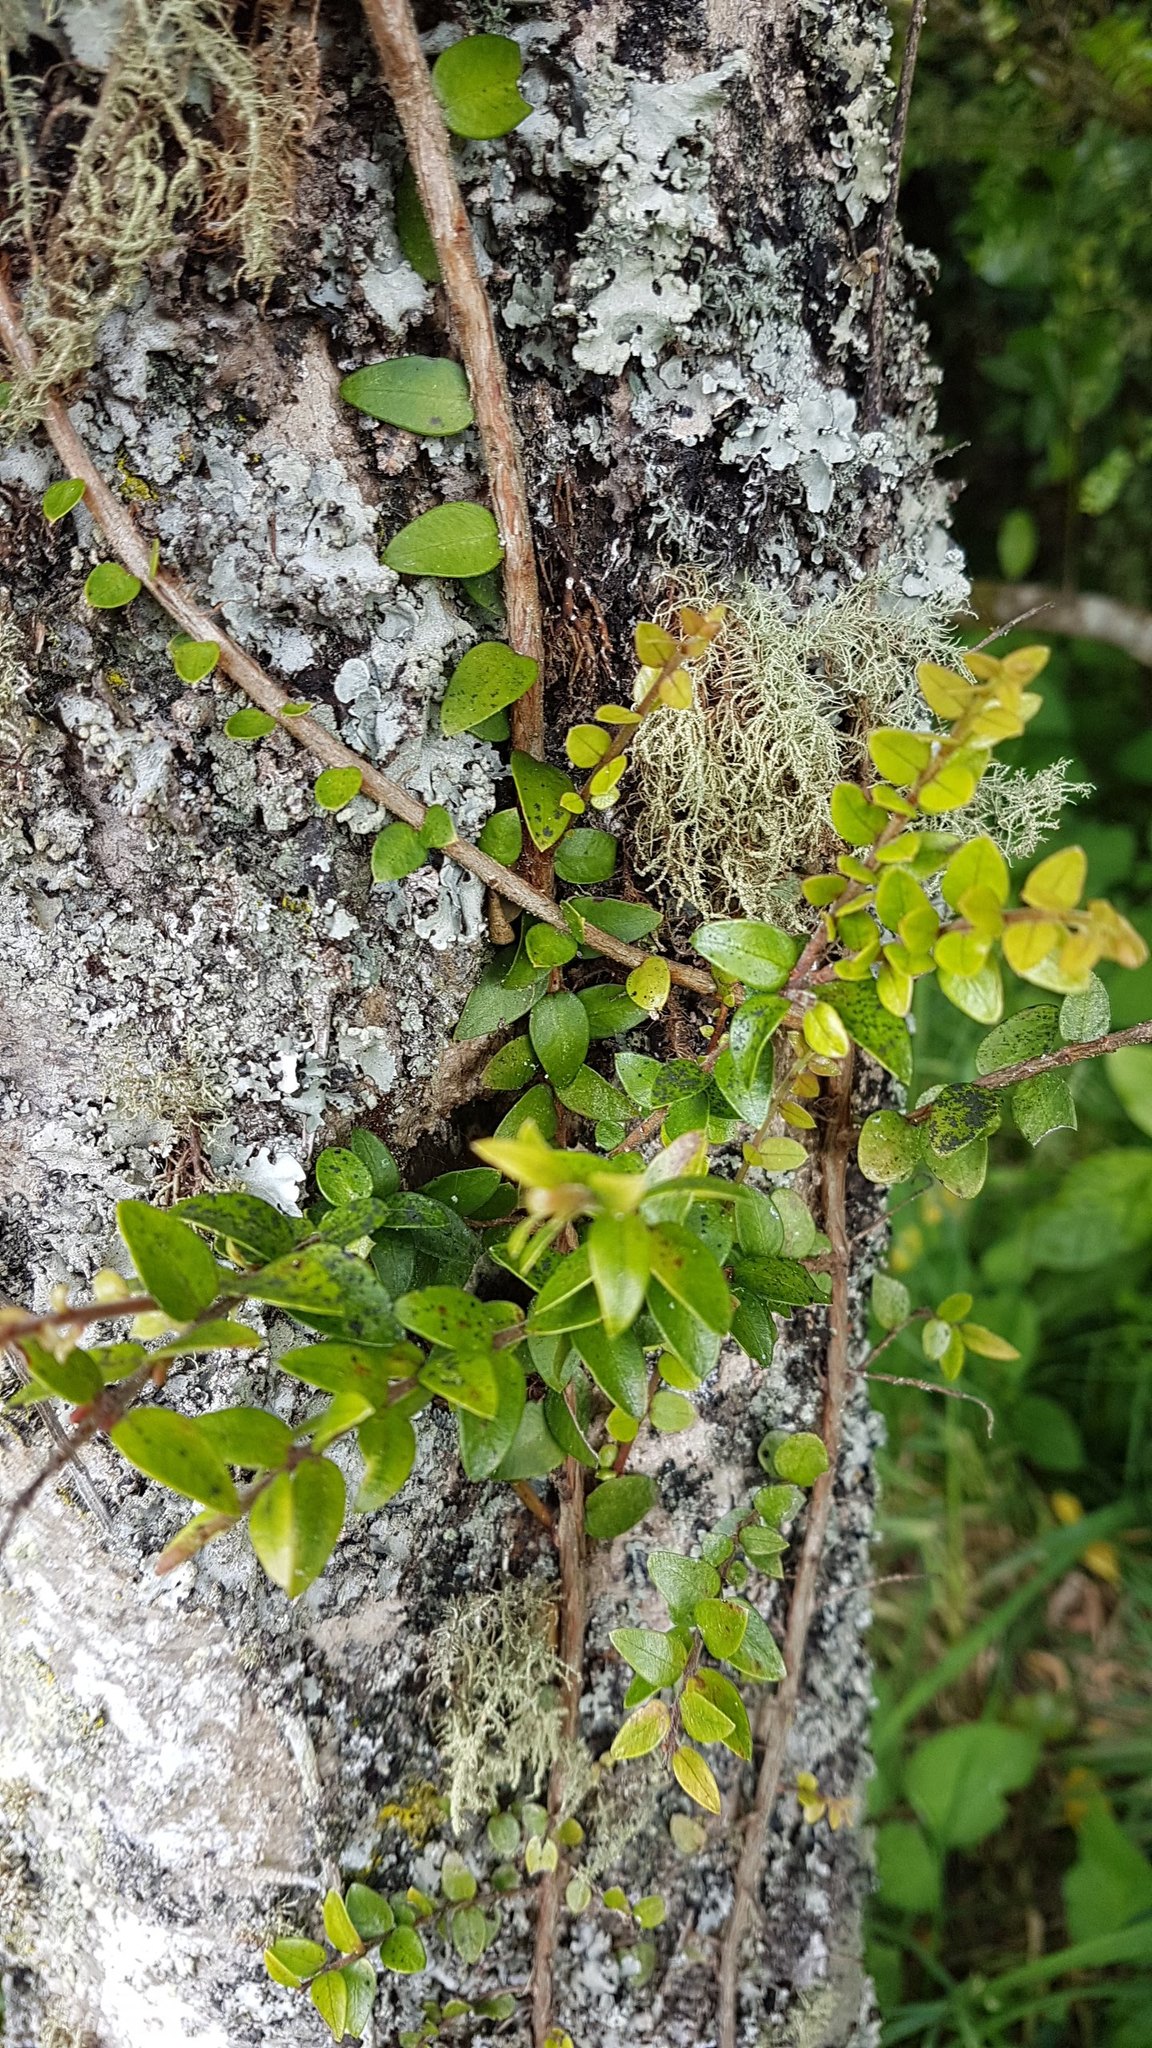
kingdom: Plantae
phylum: Tracheophyta
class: Magnoliopsida
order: Myrtales
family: Myrtaceae
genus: Metrosideros
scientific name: Metrosideros diffusa
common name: Small ratavine
